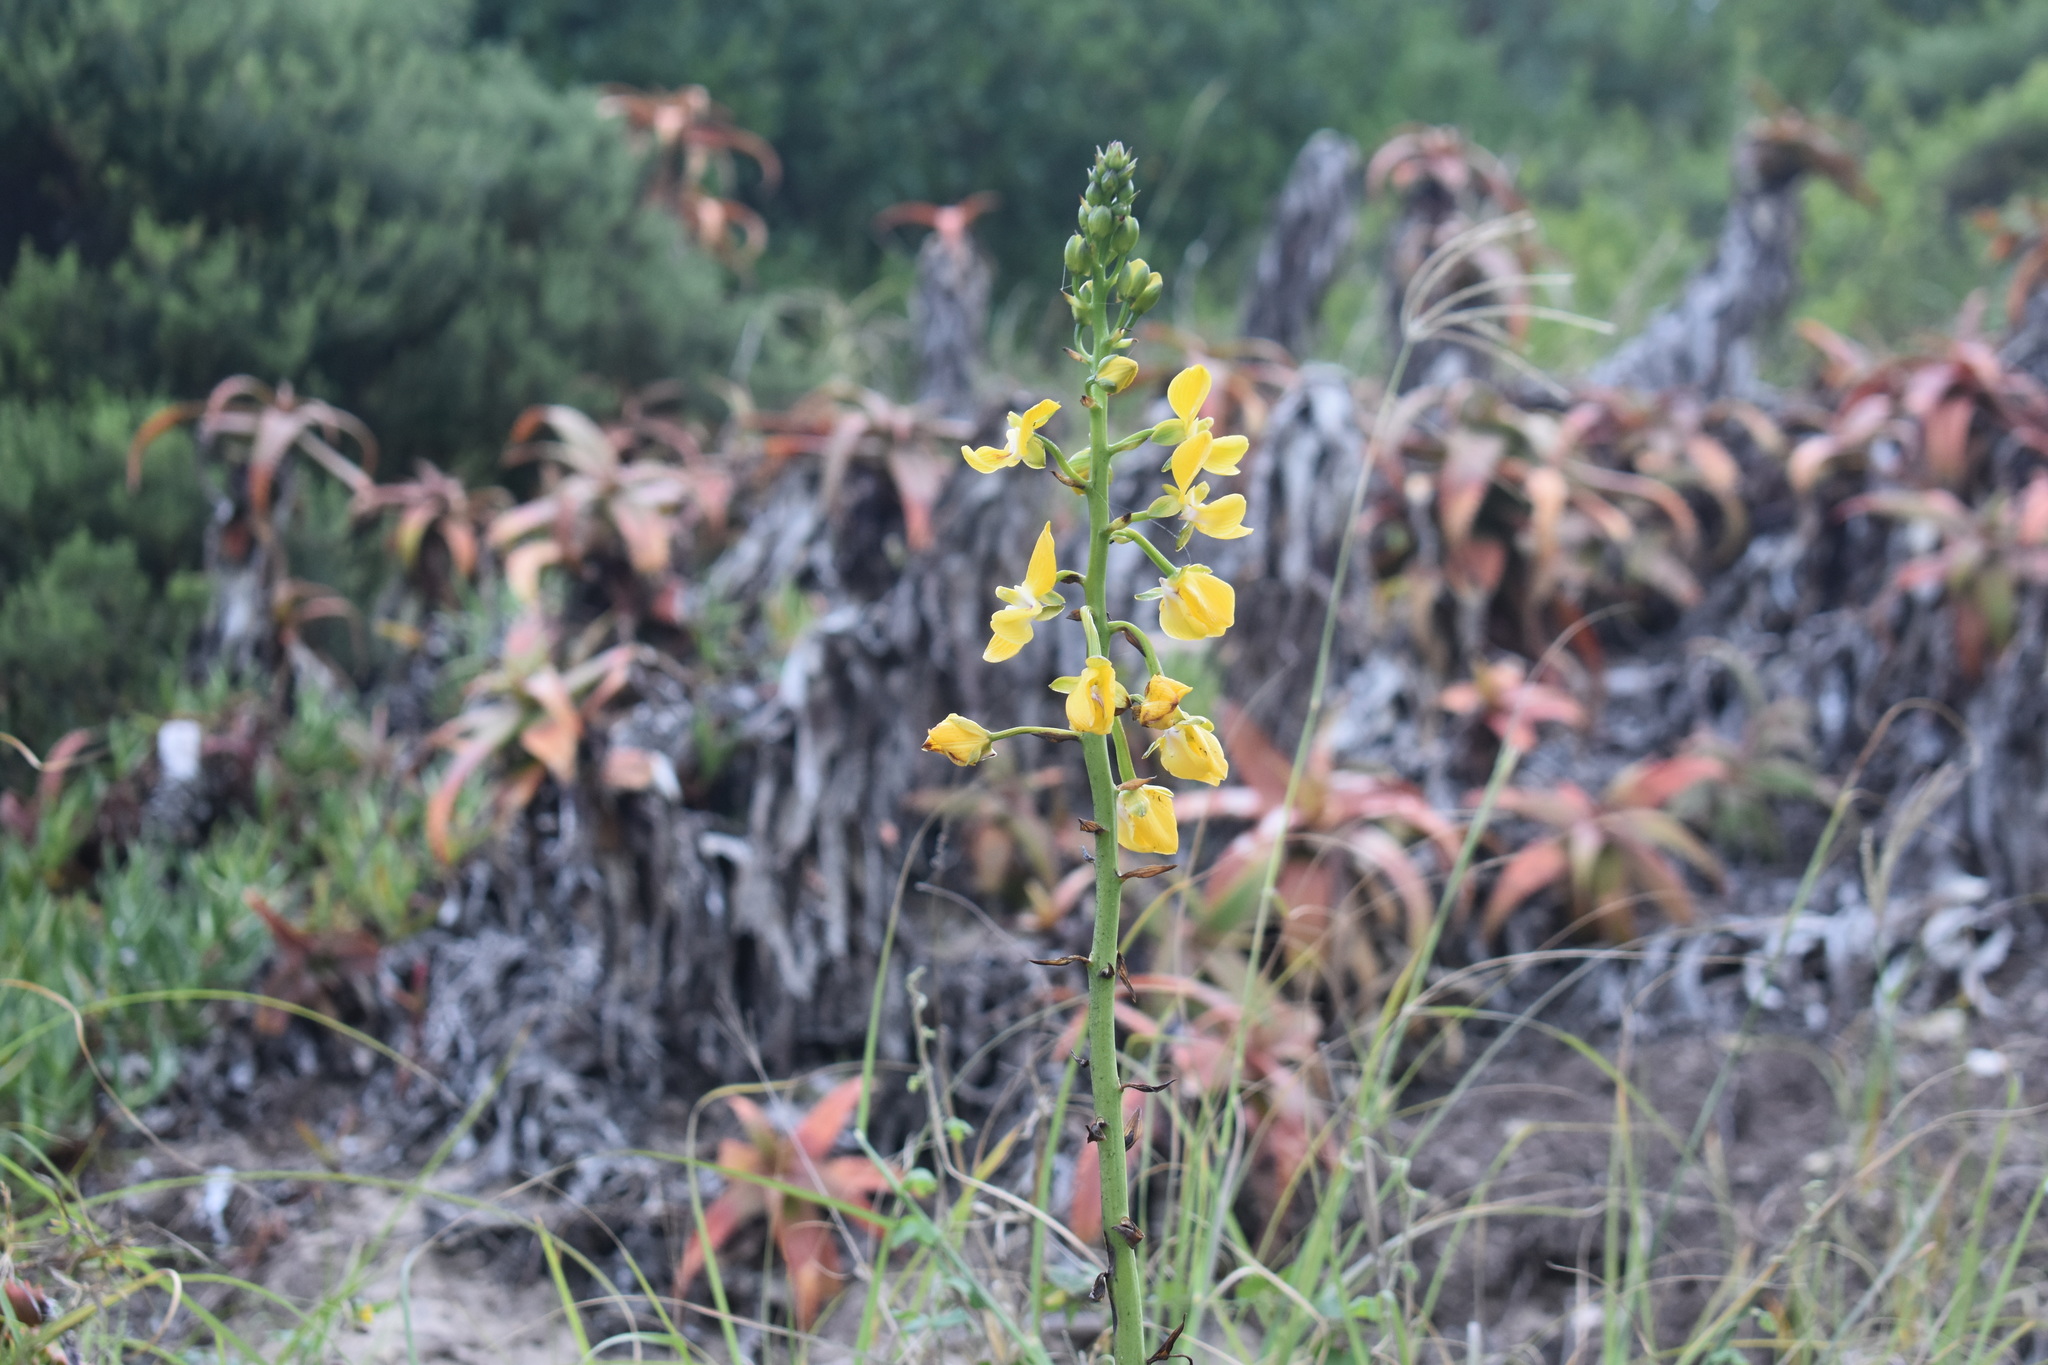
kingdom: Plantae
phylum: Tracheophyta
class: Liliopsida
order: Asparagales
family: Orchidaceae
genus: Eulophia
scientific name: Eulophia speciosa
